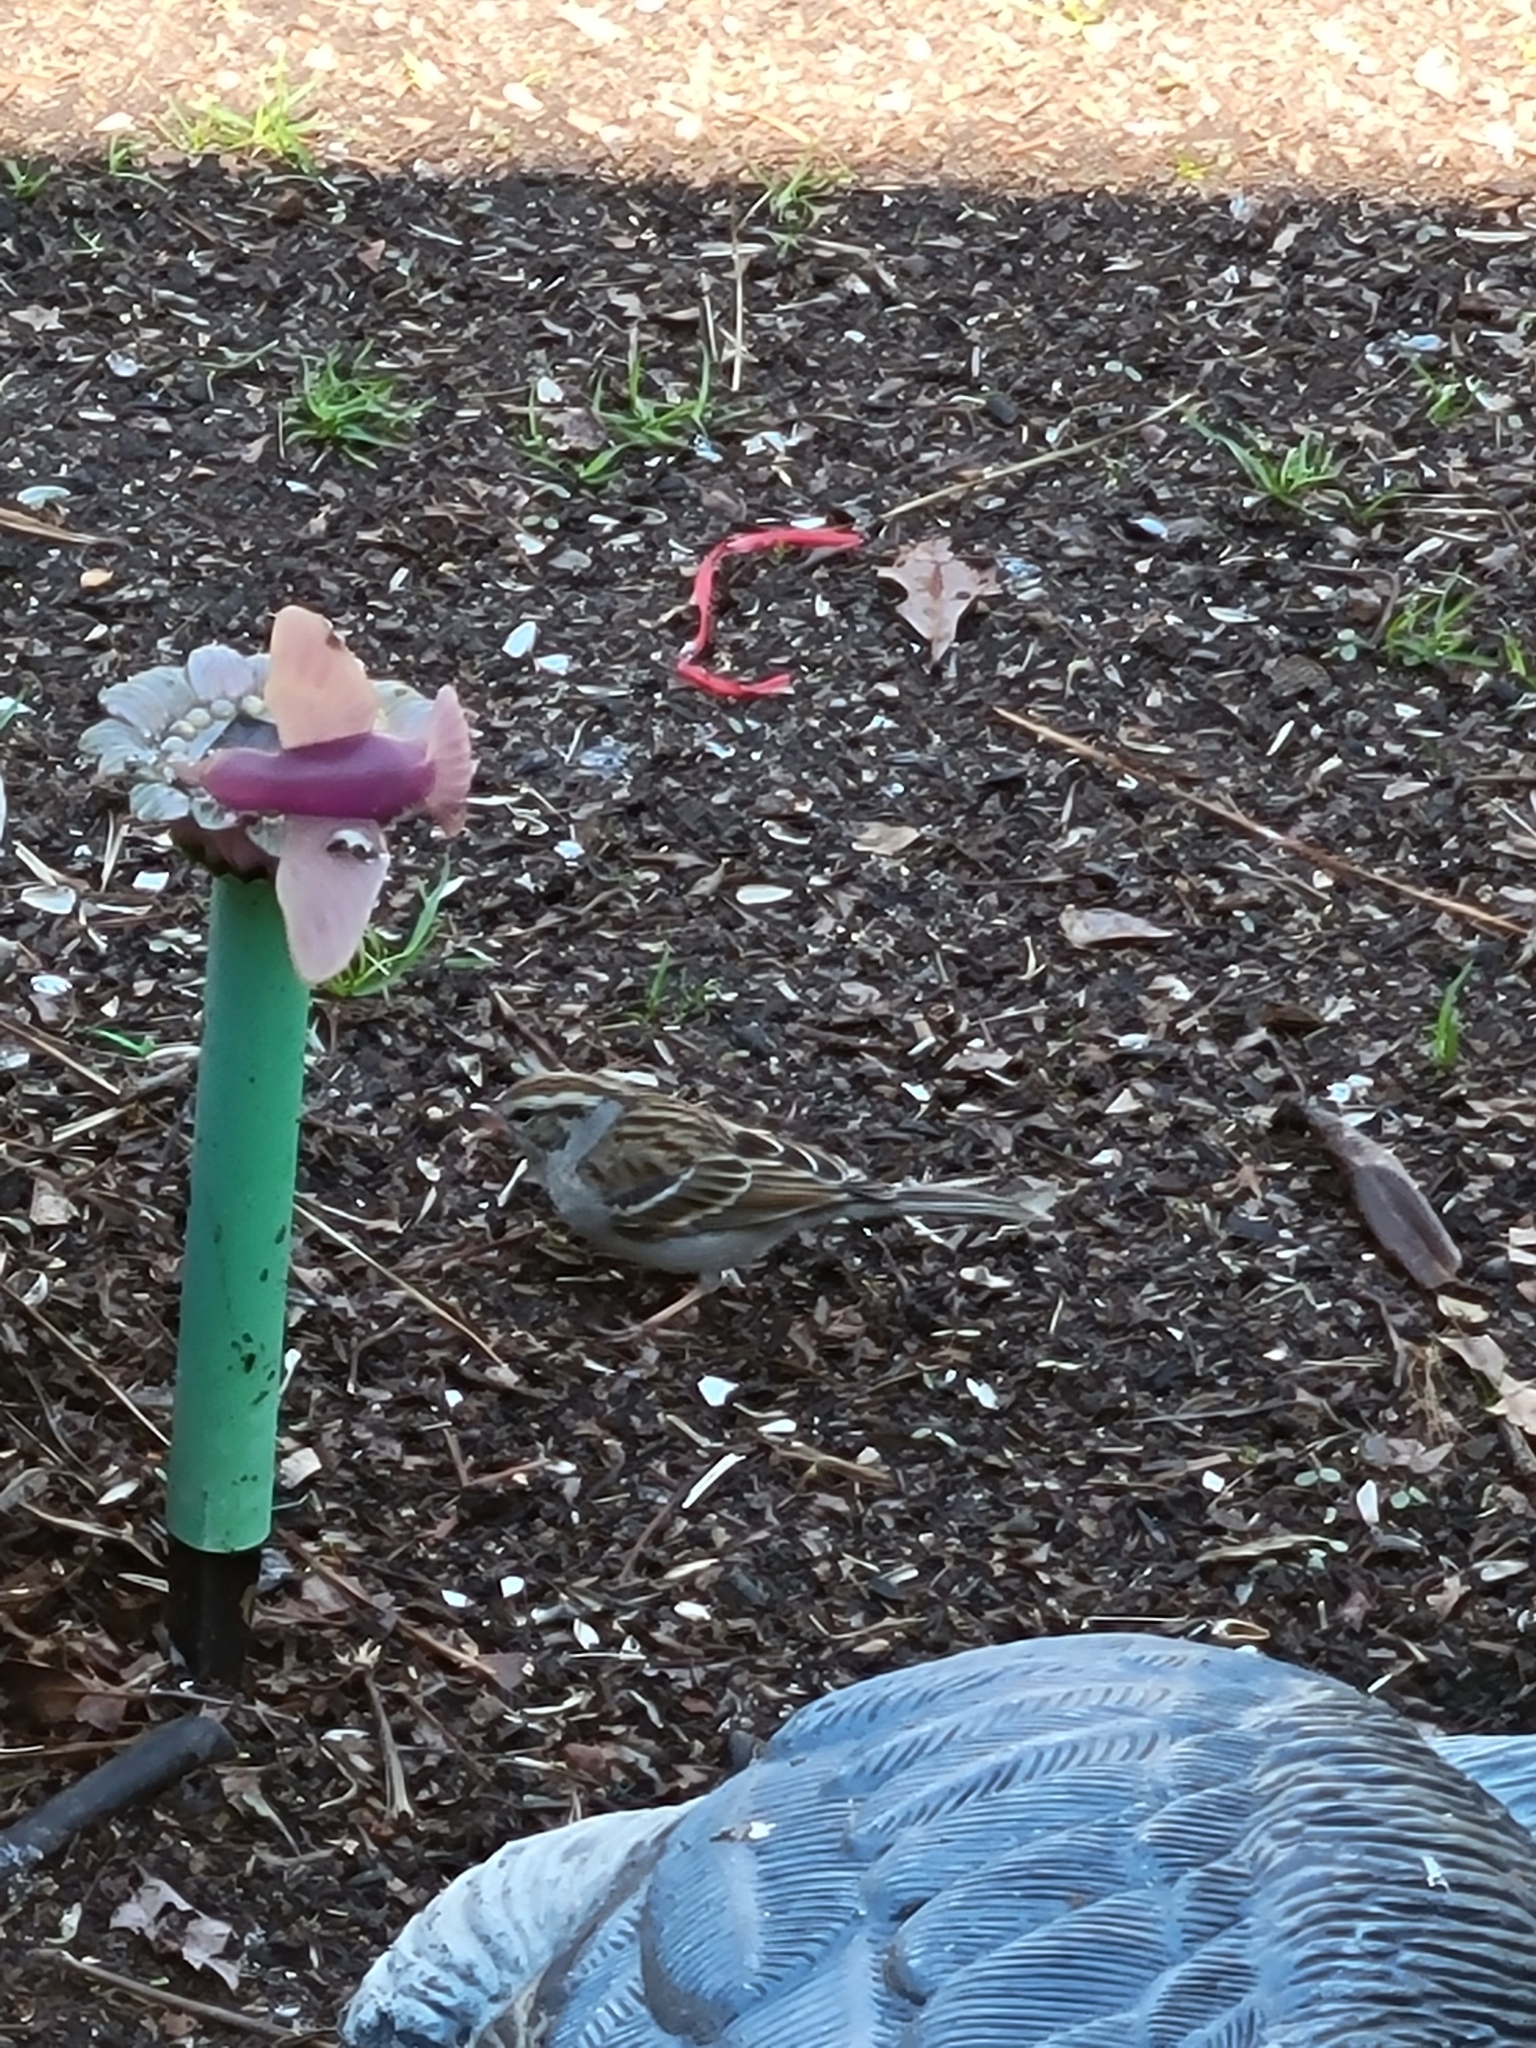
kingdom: Animalia
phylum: Chordata
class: Aves
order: Passeriformes
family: Passerellidae
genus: Spizella
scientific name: Spizella passerina
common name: Chipping sparrow
